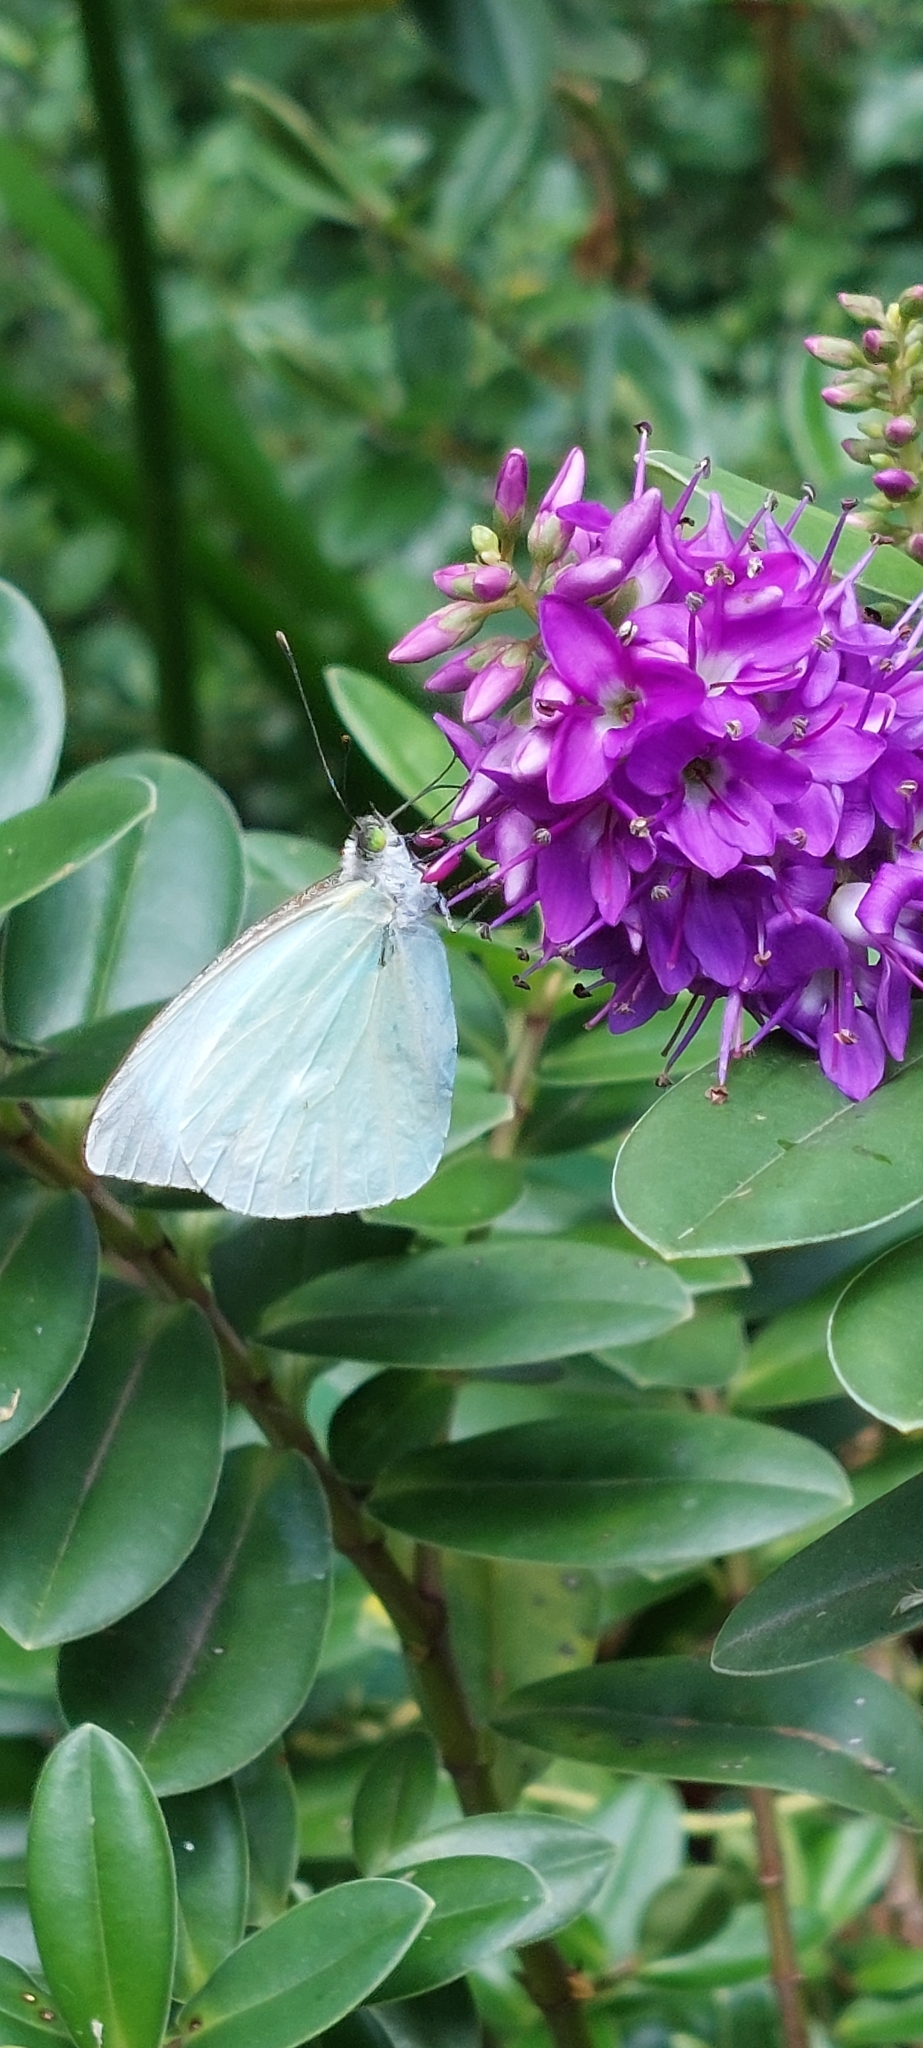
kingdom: Animalia
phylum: Arthropoda
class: Insecta
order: Lepidoptera
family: Pieridae
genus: Leptophobia
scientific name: Leptophobia aripa
